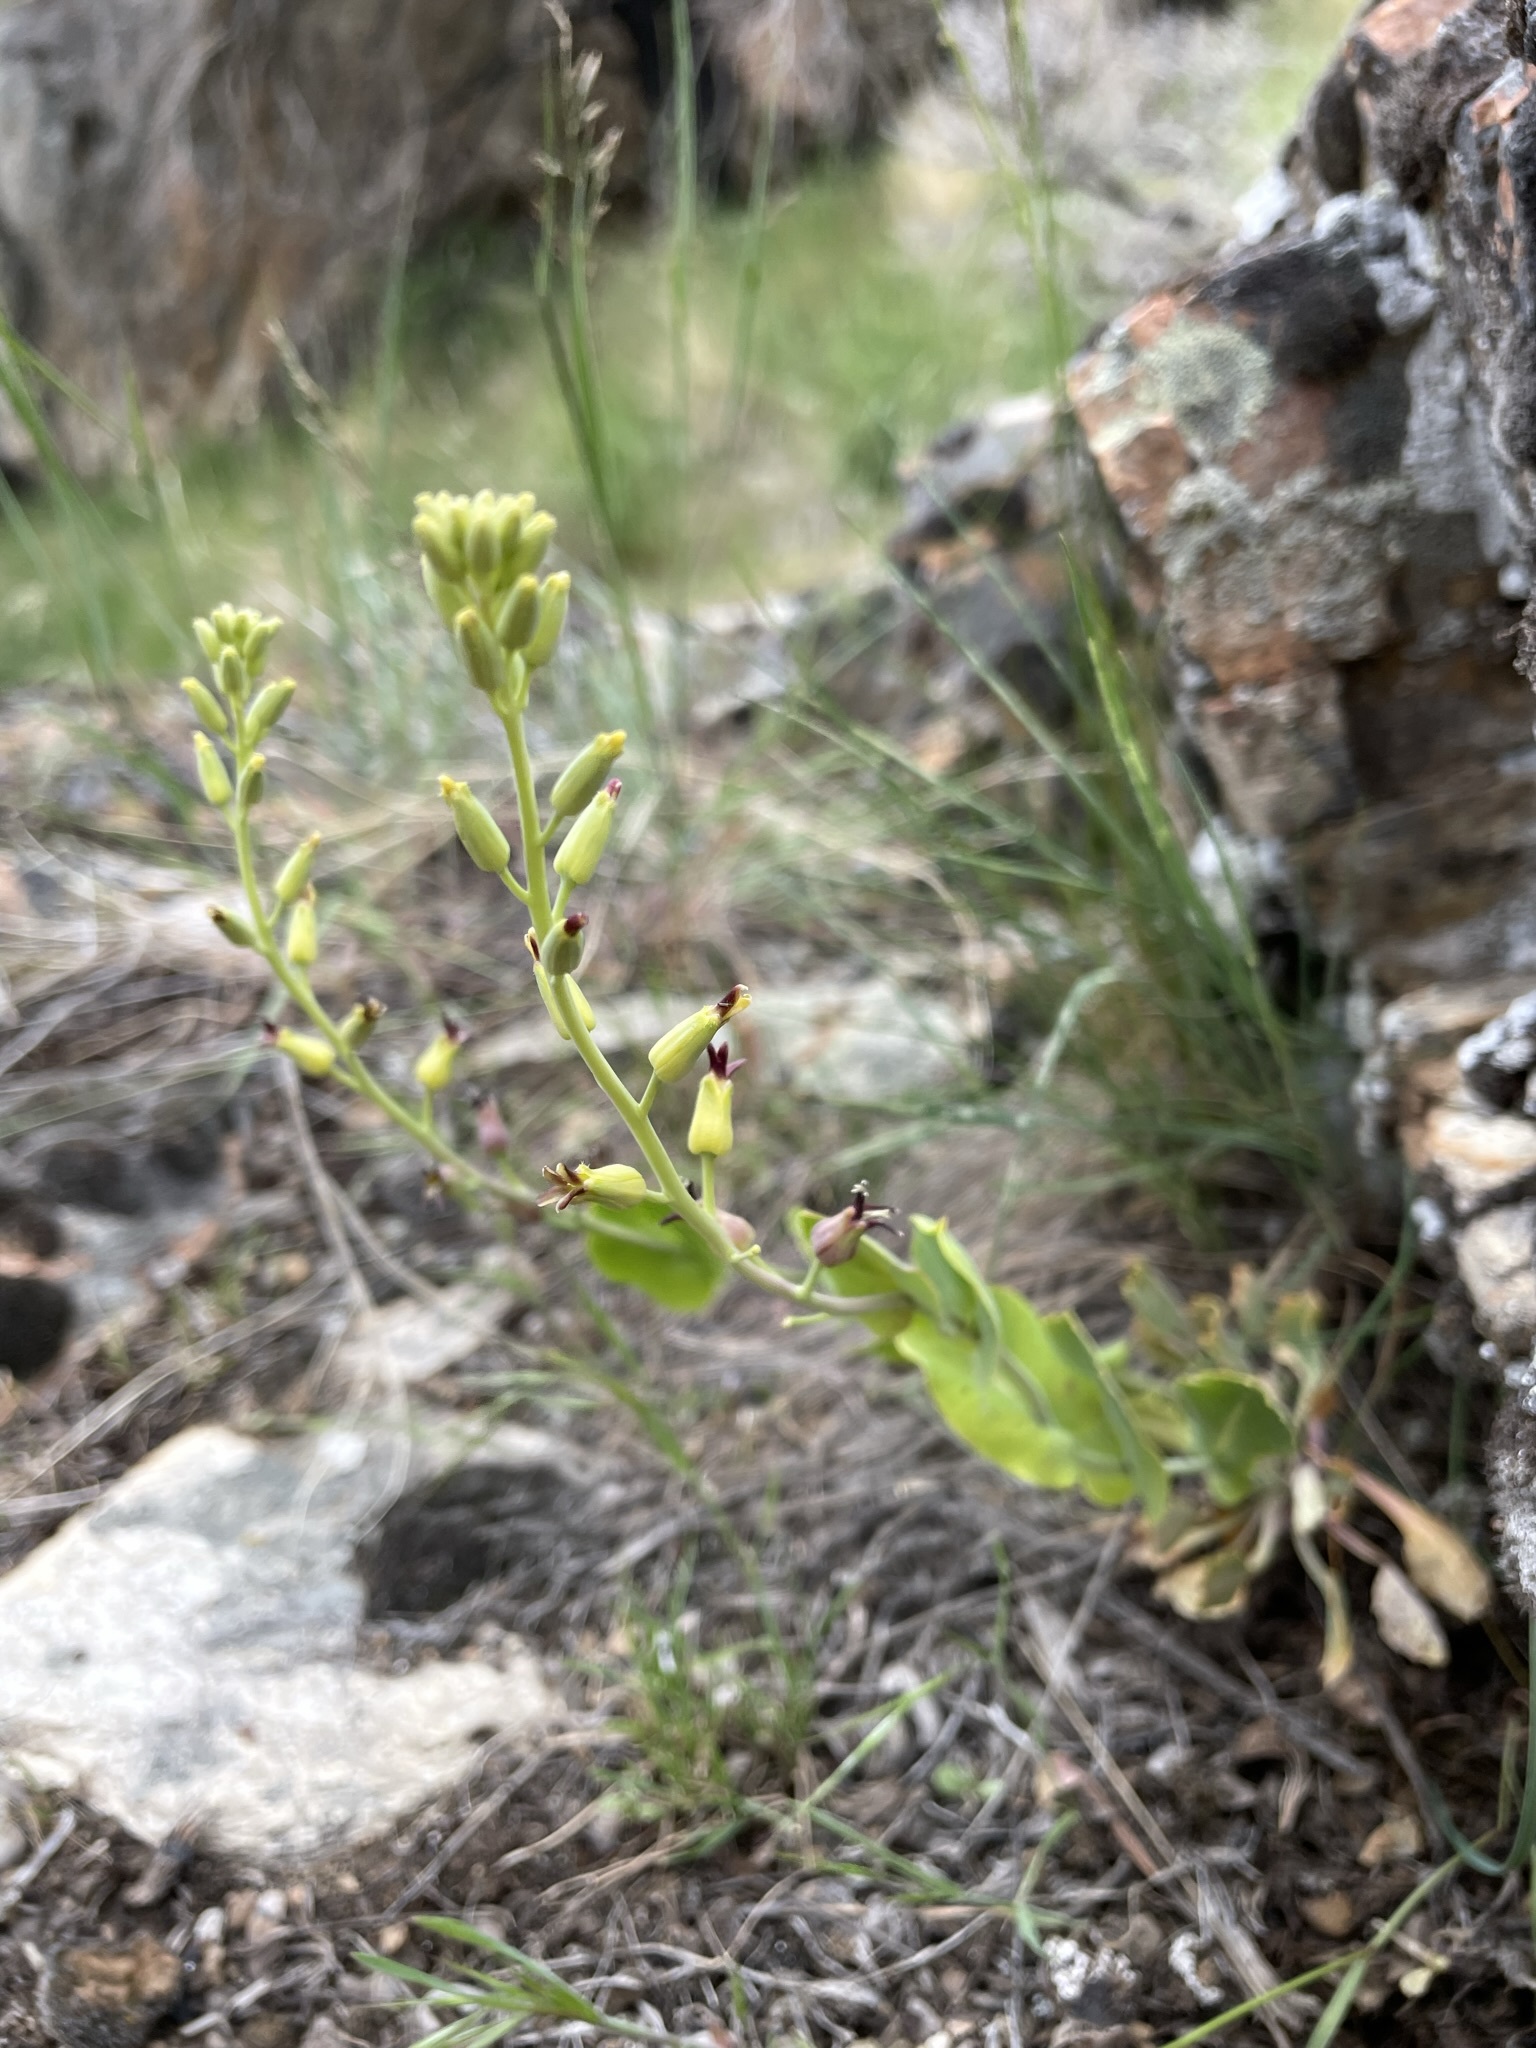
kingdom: Plantae
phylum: Tracheophyta
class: Magnoliopsida
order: Brassicales
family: Brassicaceae
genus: Streptanthus
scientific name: Streptanthus cordatus
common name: Heart-leaf jewel-flower
